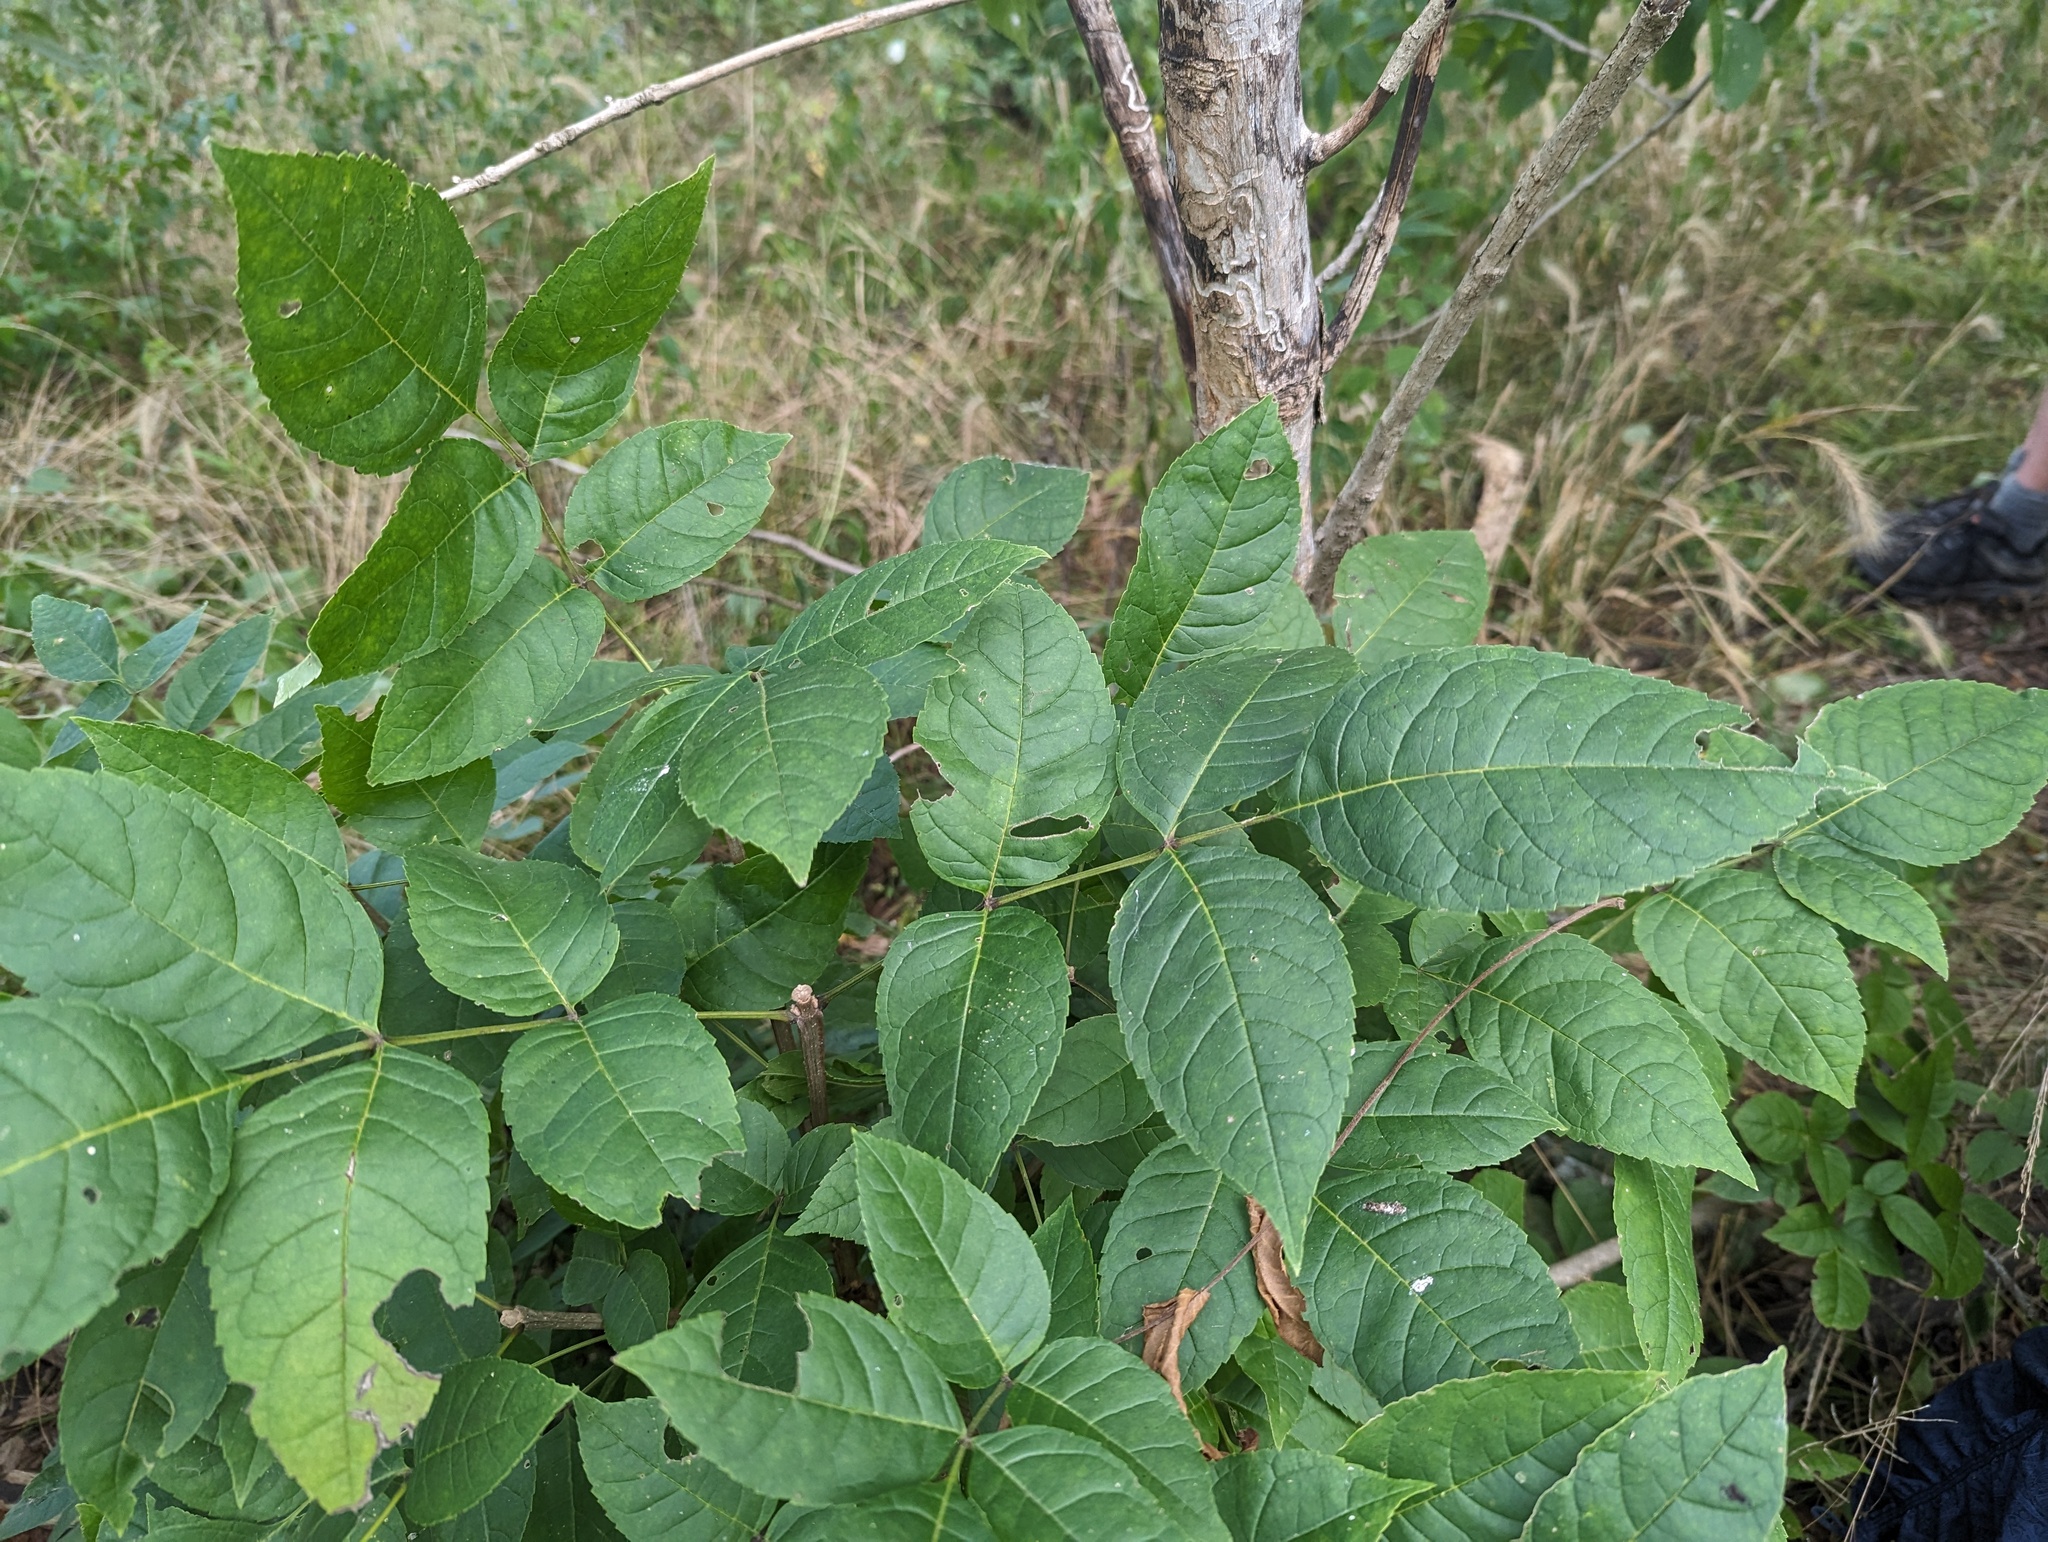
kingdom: Plantae
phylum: Tracheophyta
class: Magnoliopsida
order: Lamiales
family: Oleaceae
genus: Fraxinus
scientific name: Fraxinus quadrangulata
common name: Blue ash
